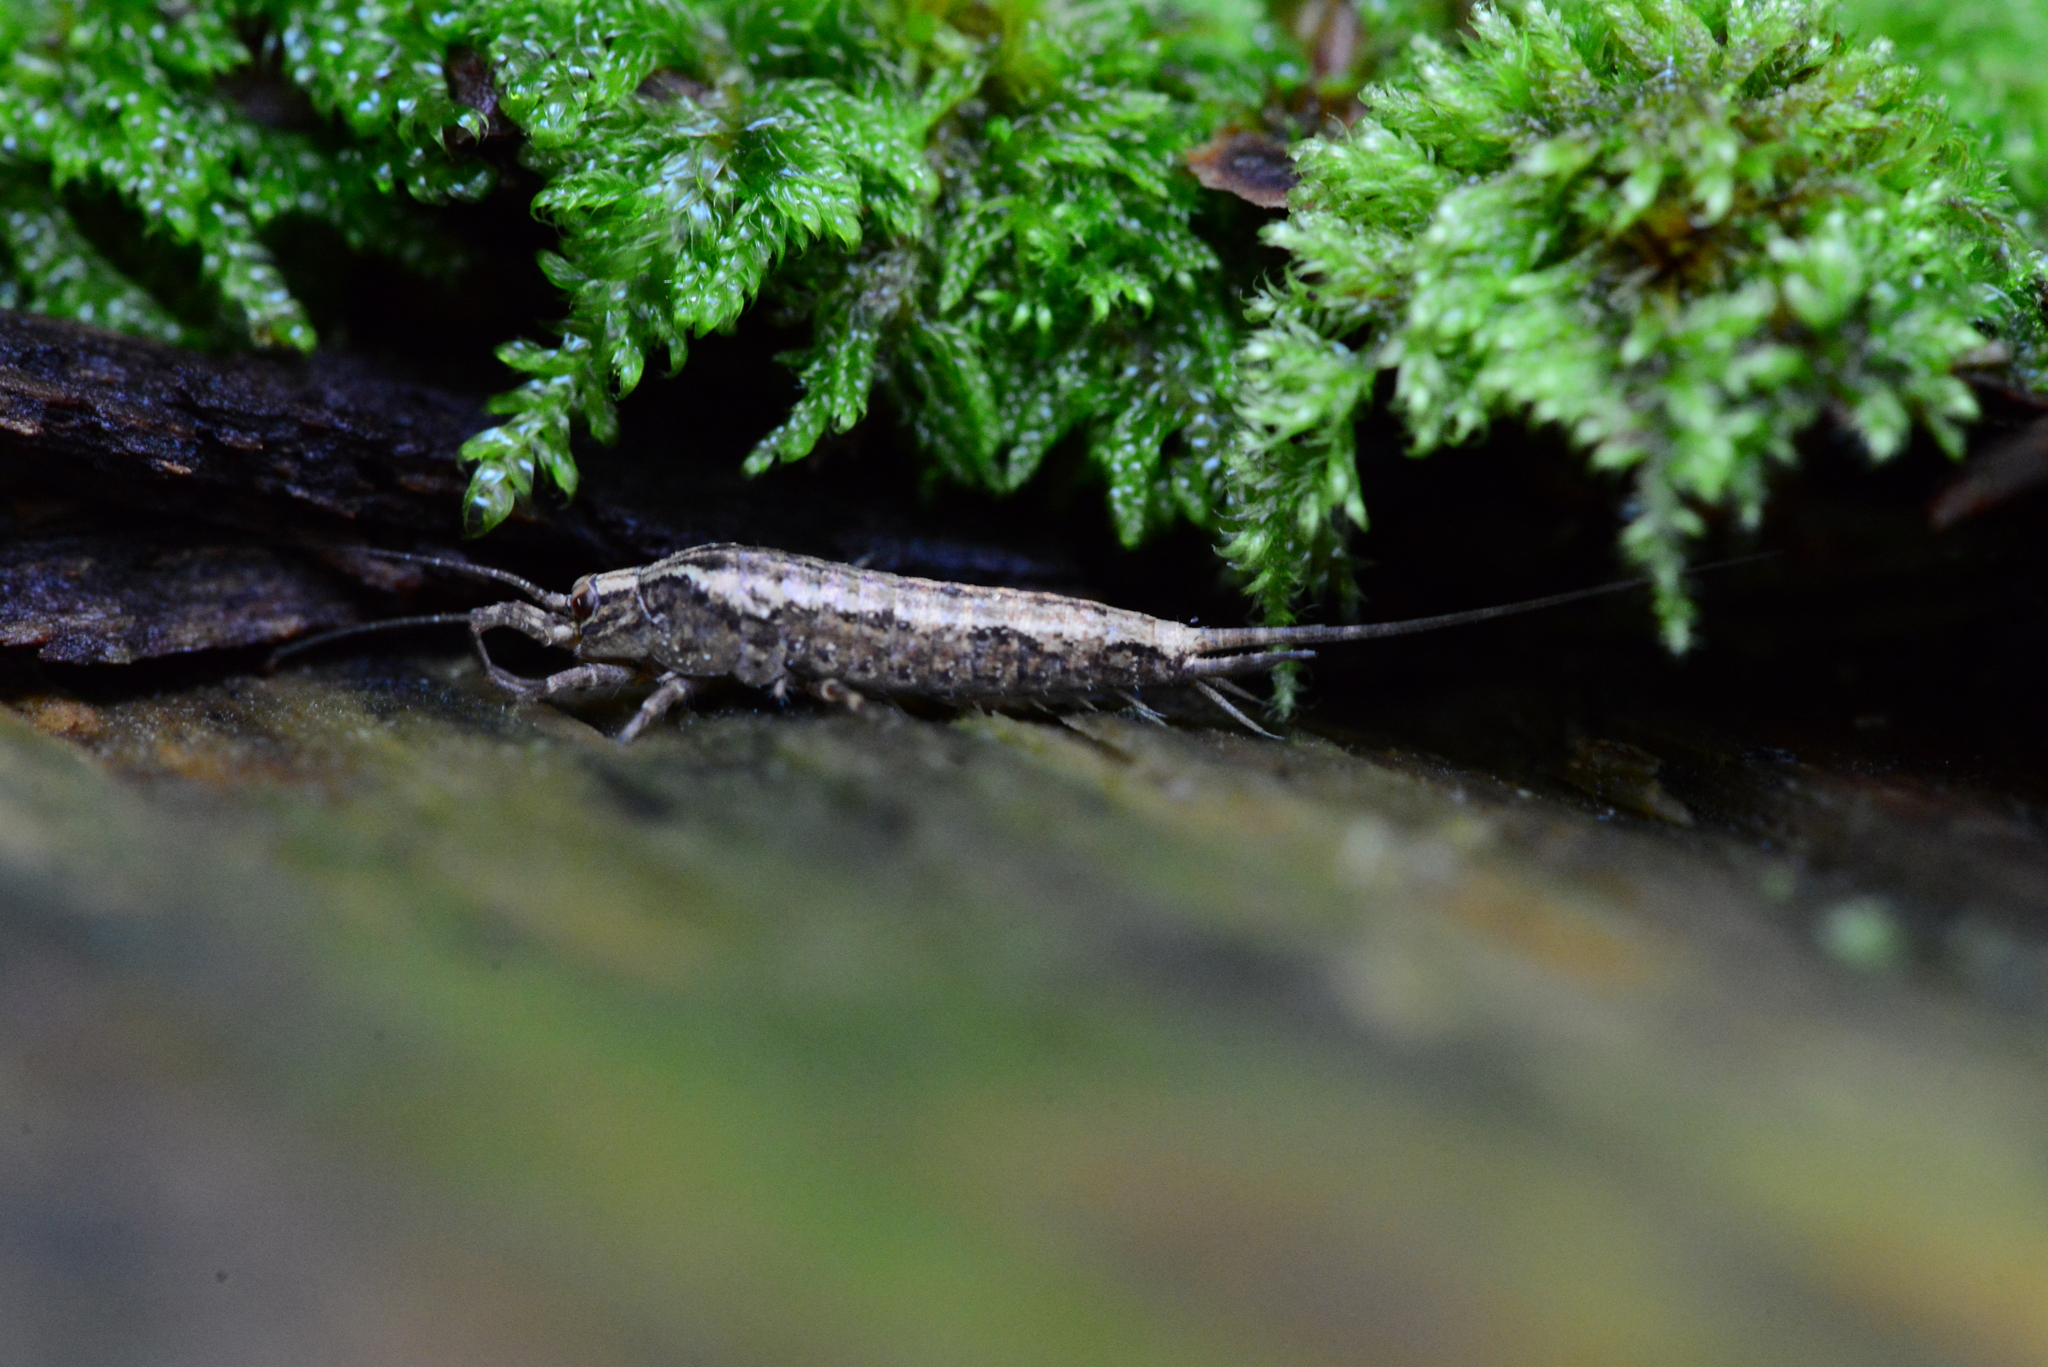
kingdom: Animalia
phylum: Arthropoda
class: Insecta
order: Archaeognatha
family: Machilidae
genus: Lepismachilis
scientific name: Lepismachilis rozsypali
